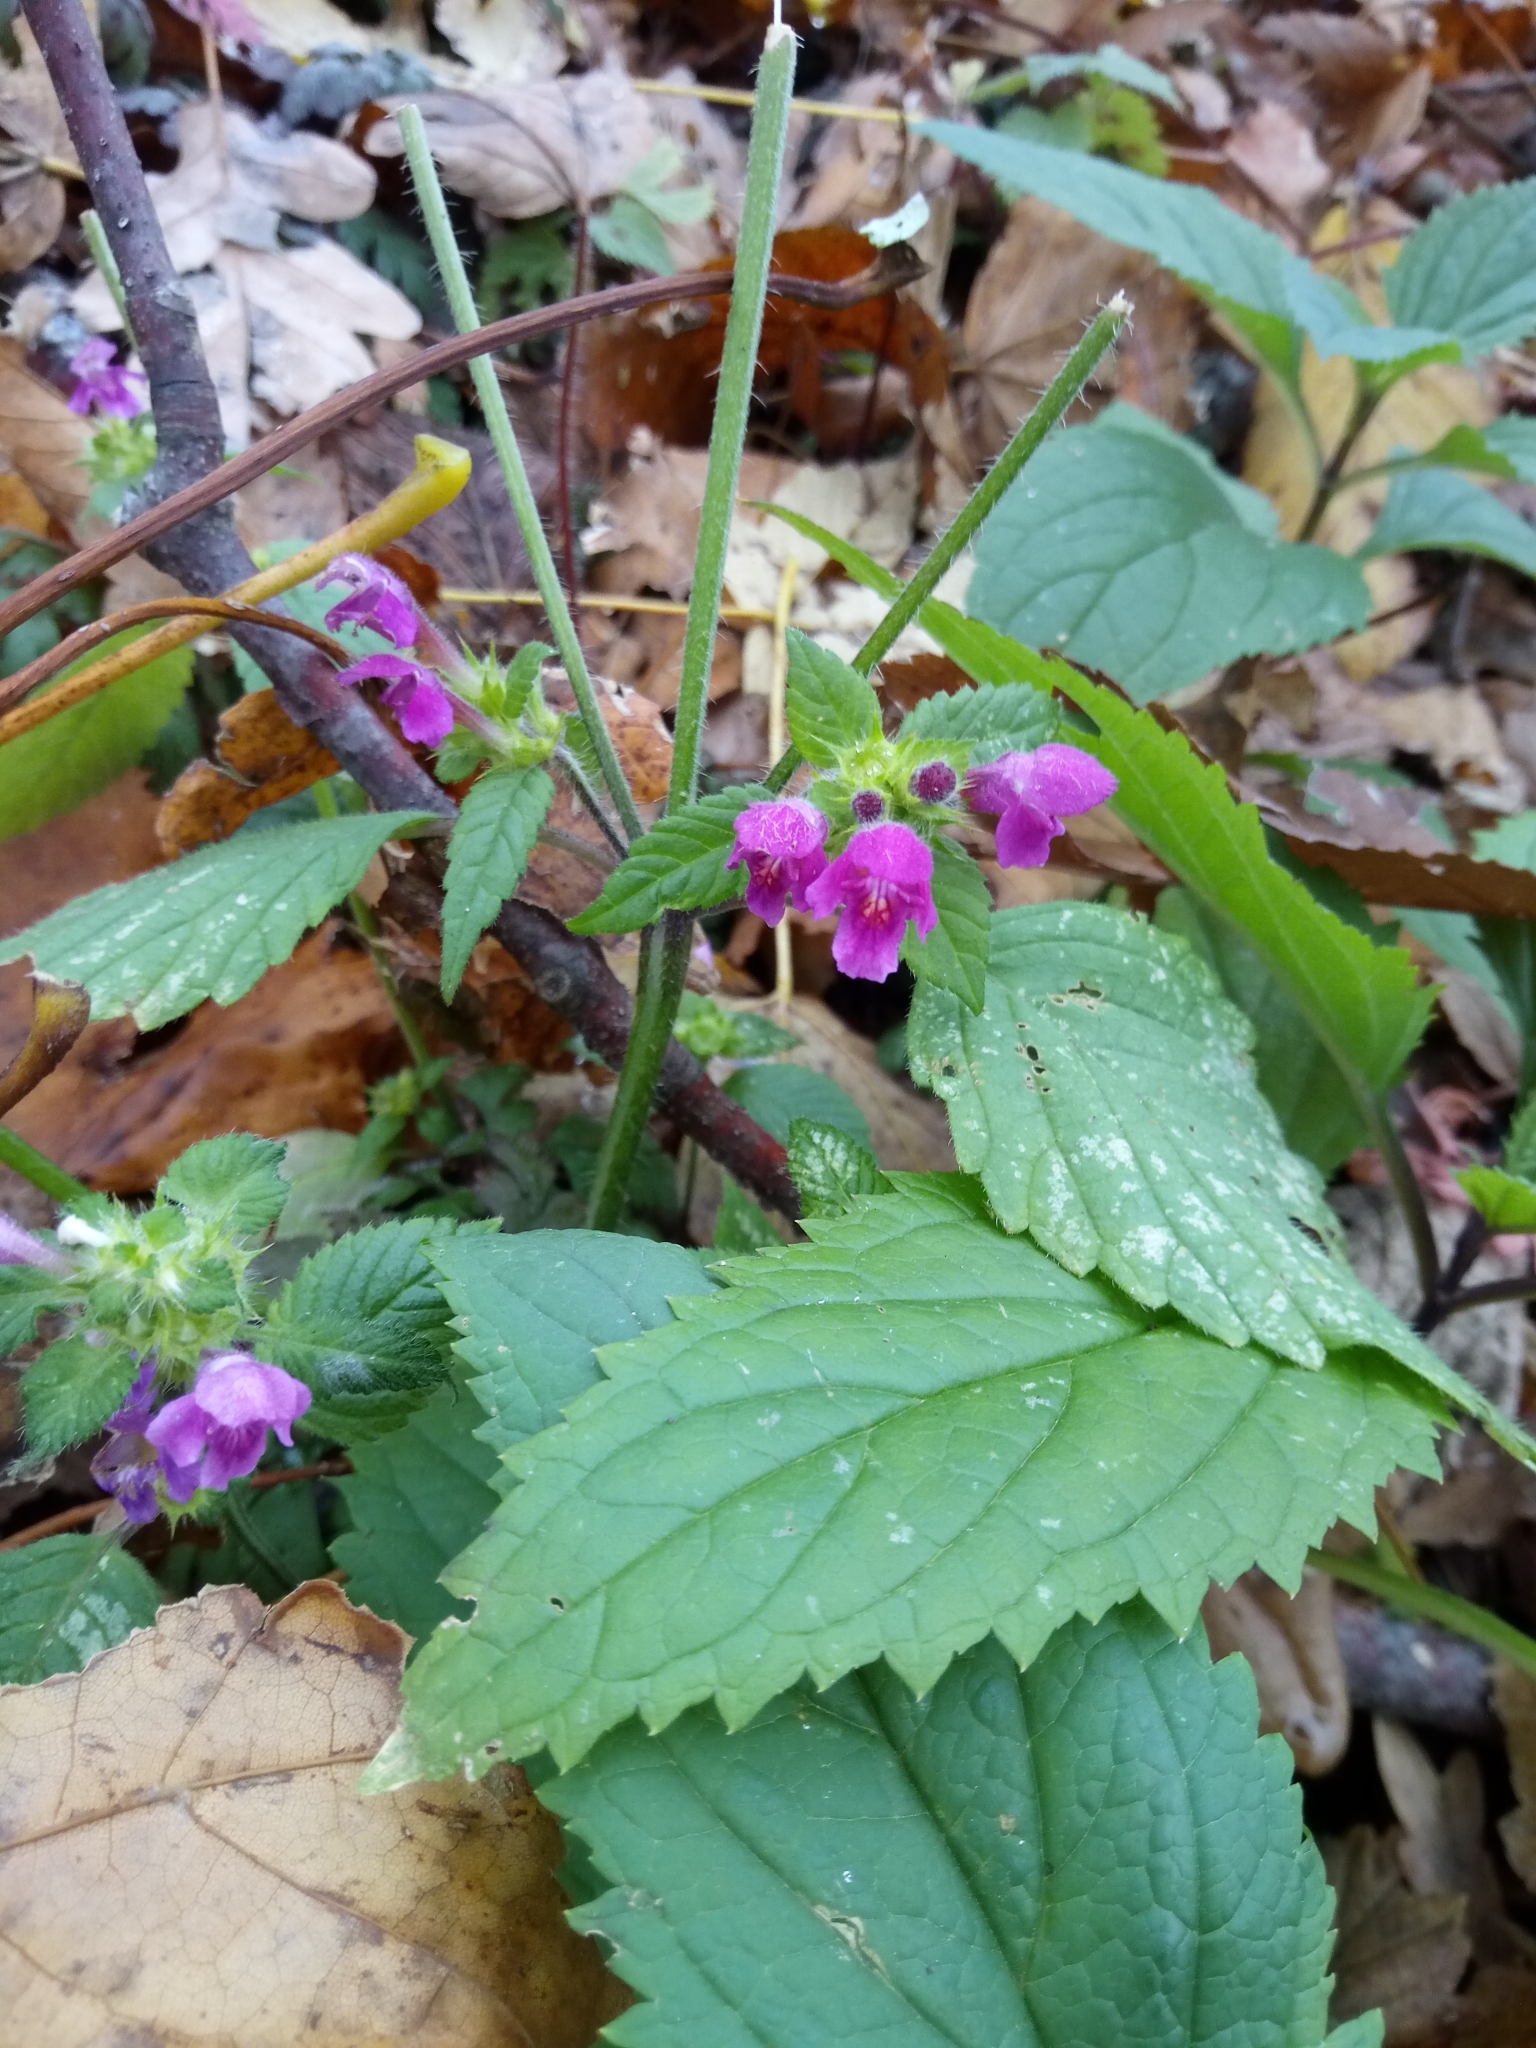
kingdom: Plantae
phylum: Tracheophyta
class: Magnoliopsida
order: Lamiales
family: Lamiaceae
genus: Galeopsis
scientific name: Galeopsis pubescens
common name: Downy hemp-nettle
